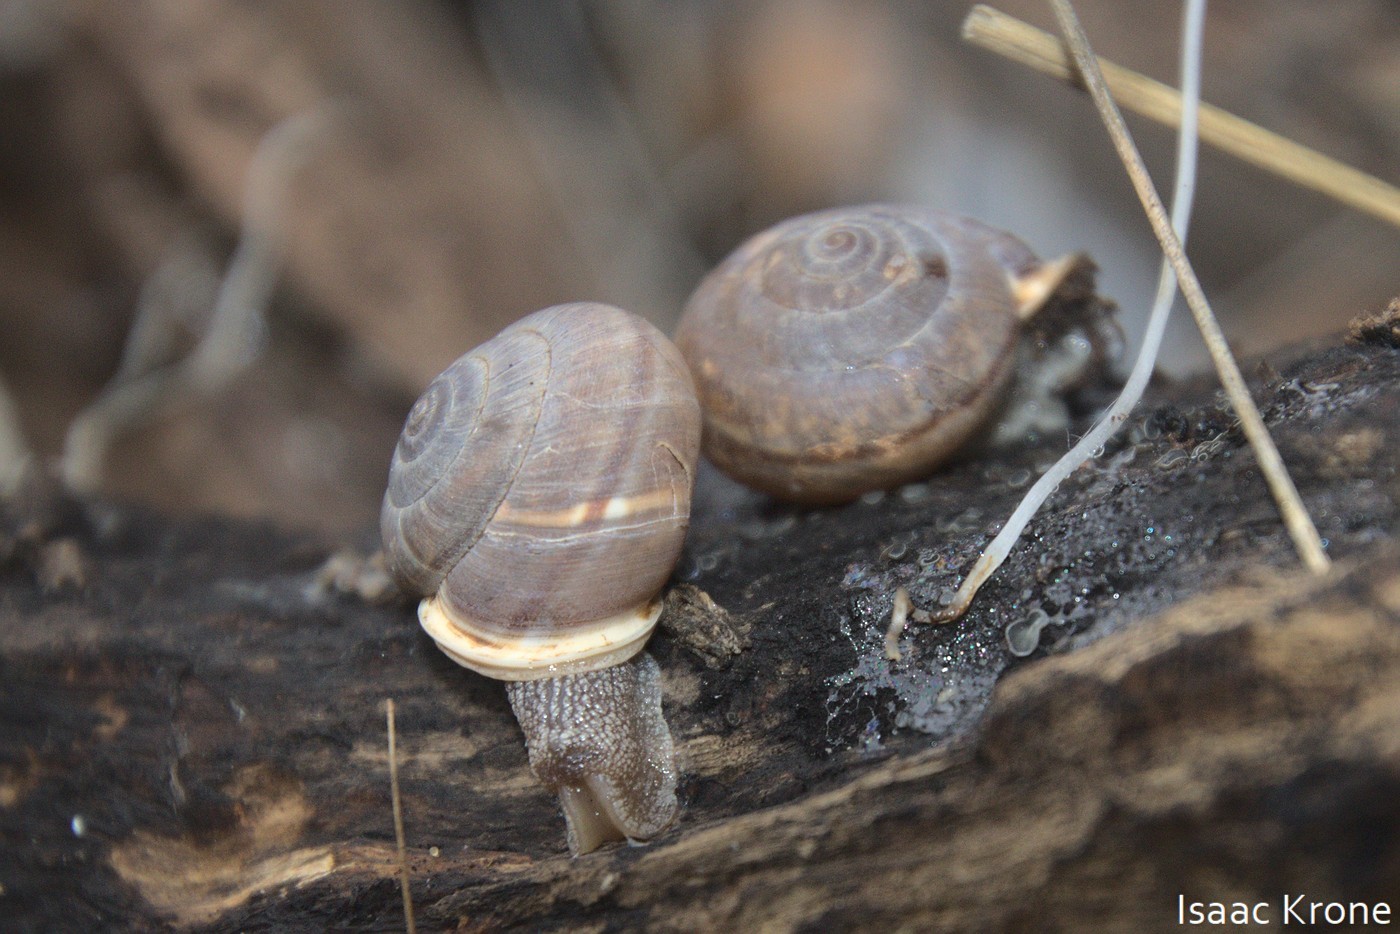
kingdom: Animalia
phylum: Mollusca
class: Gastropoda
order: Stylommatophora
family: Xanthonychidae
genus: Micrarionta
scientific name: Micrarionta rufocincta
